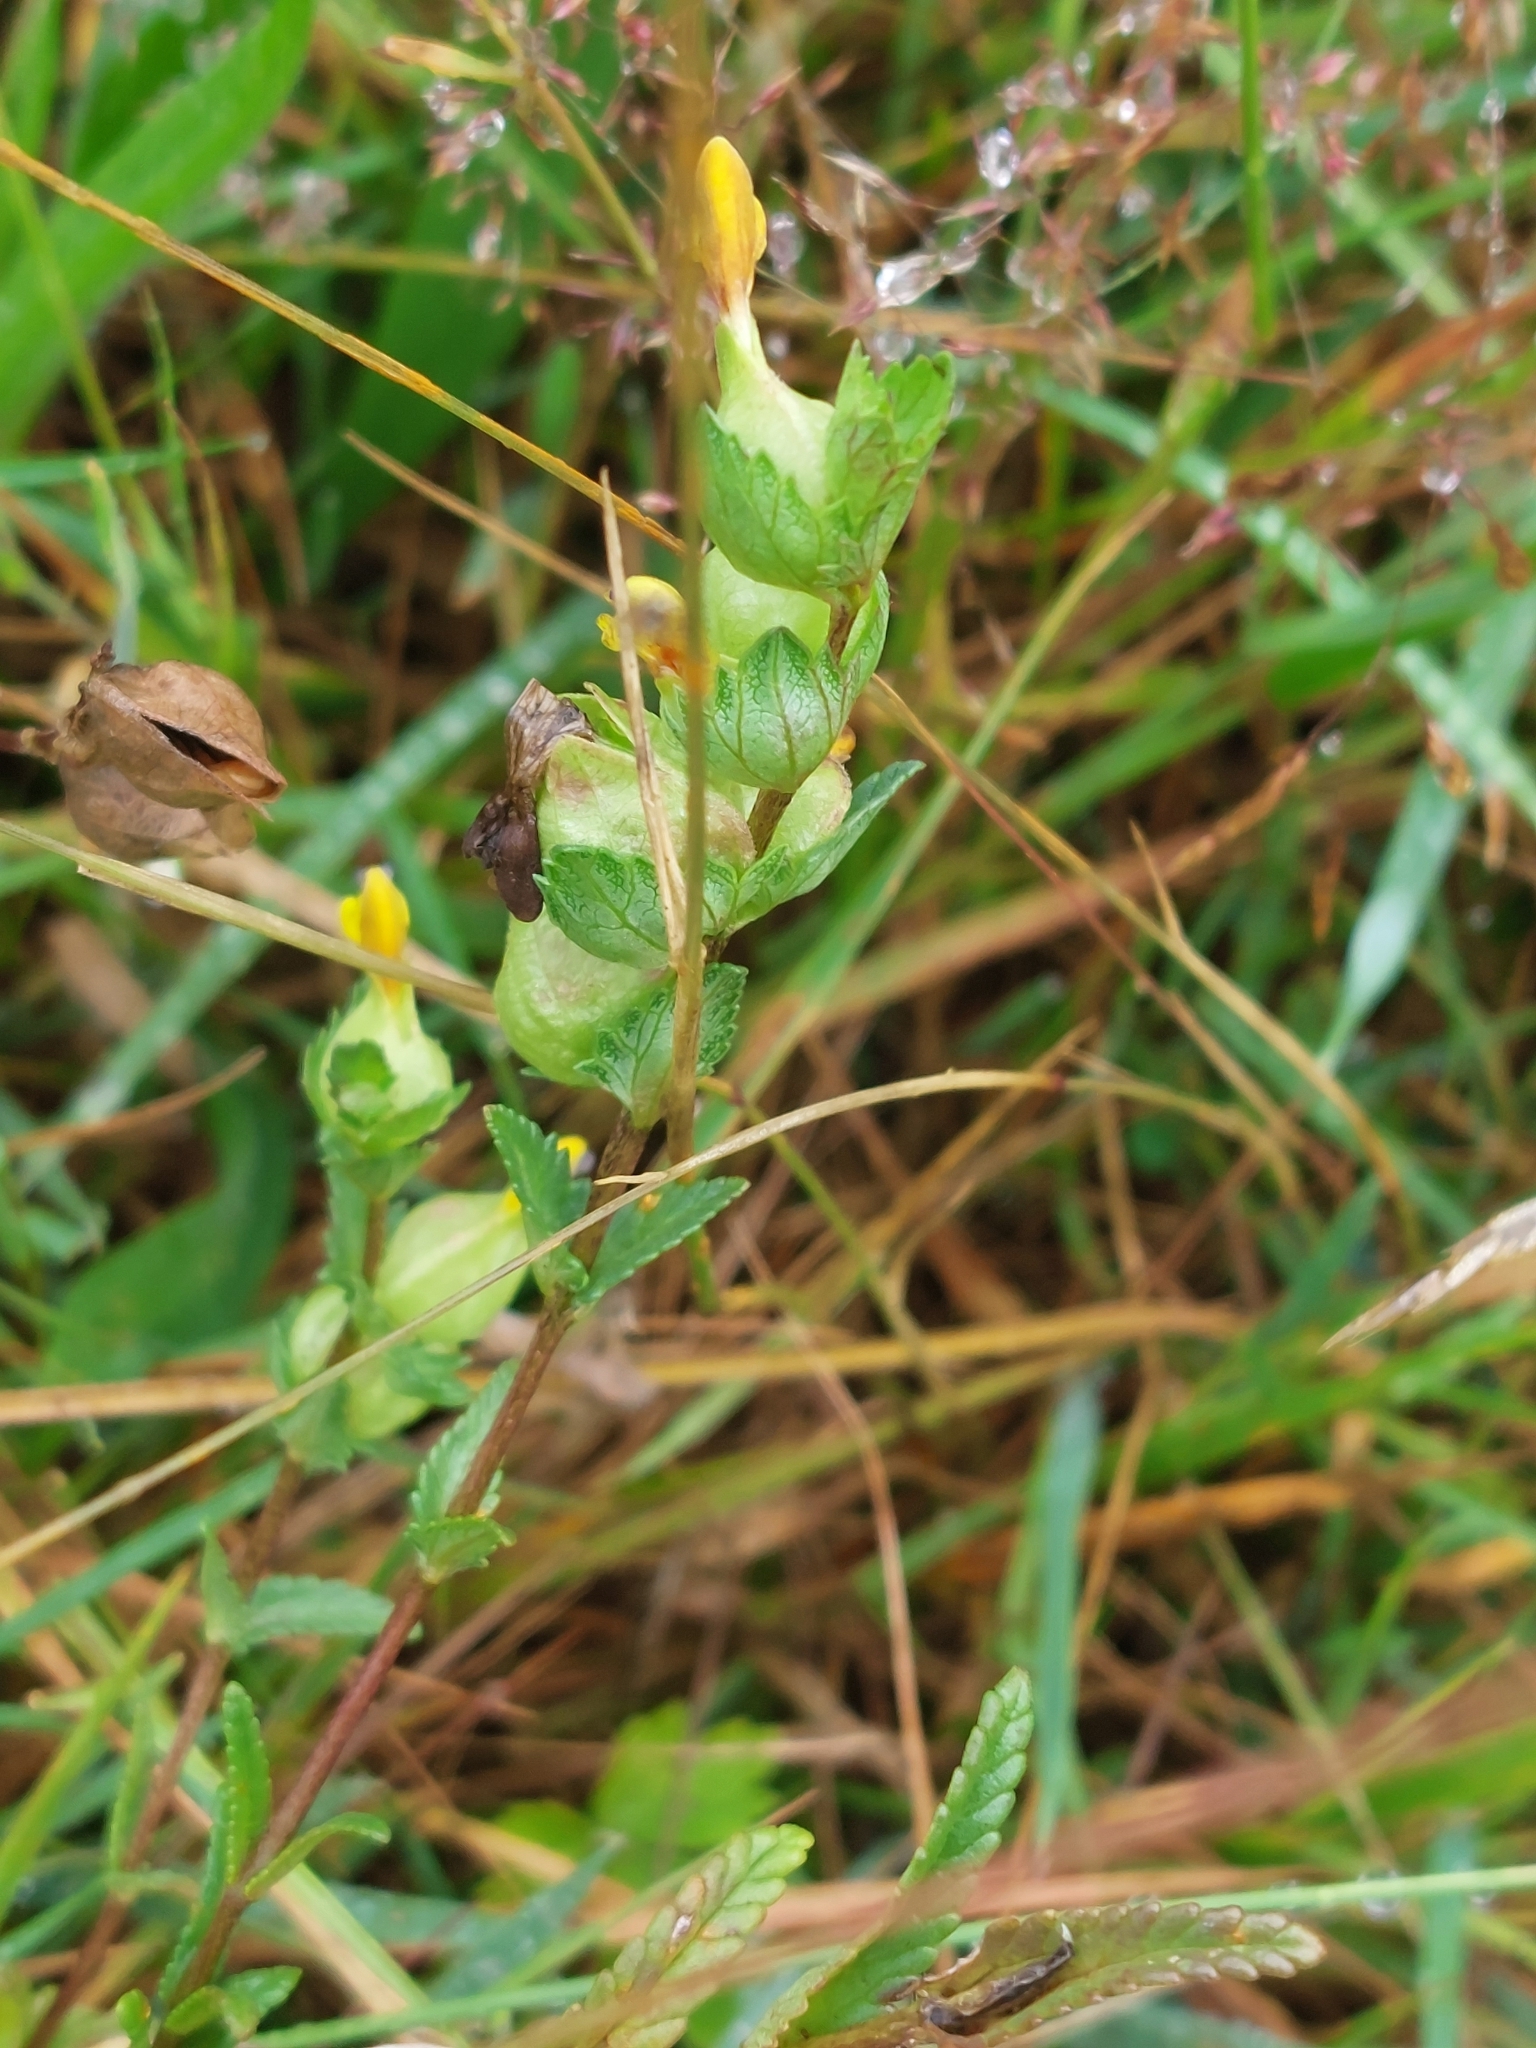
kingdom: Plantae
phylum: Tracheophyta
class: Magnoliopsida
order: Lamiales
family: Orobanchaceae
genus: Rhinanthus
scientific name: Rhinanthus minor
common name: Yellow-rattle
